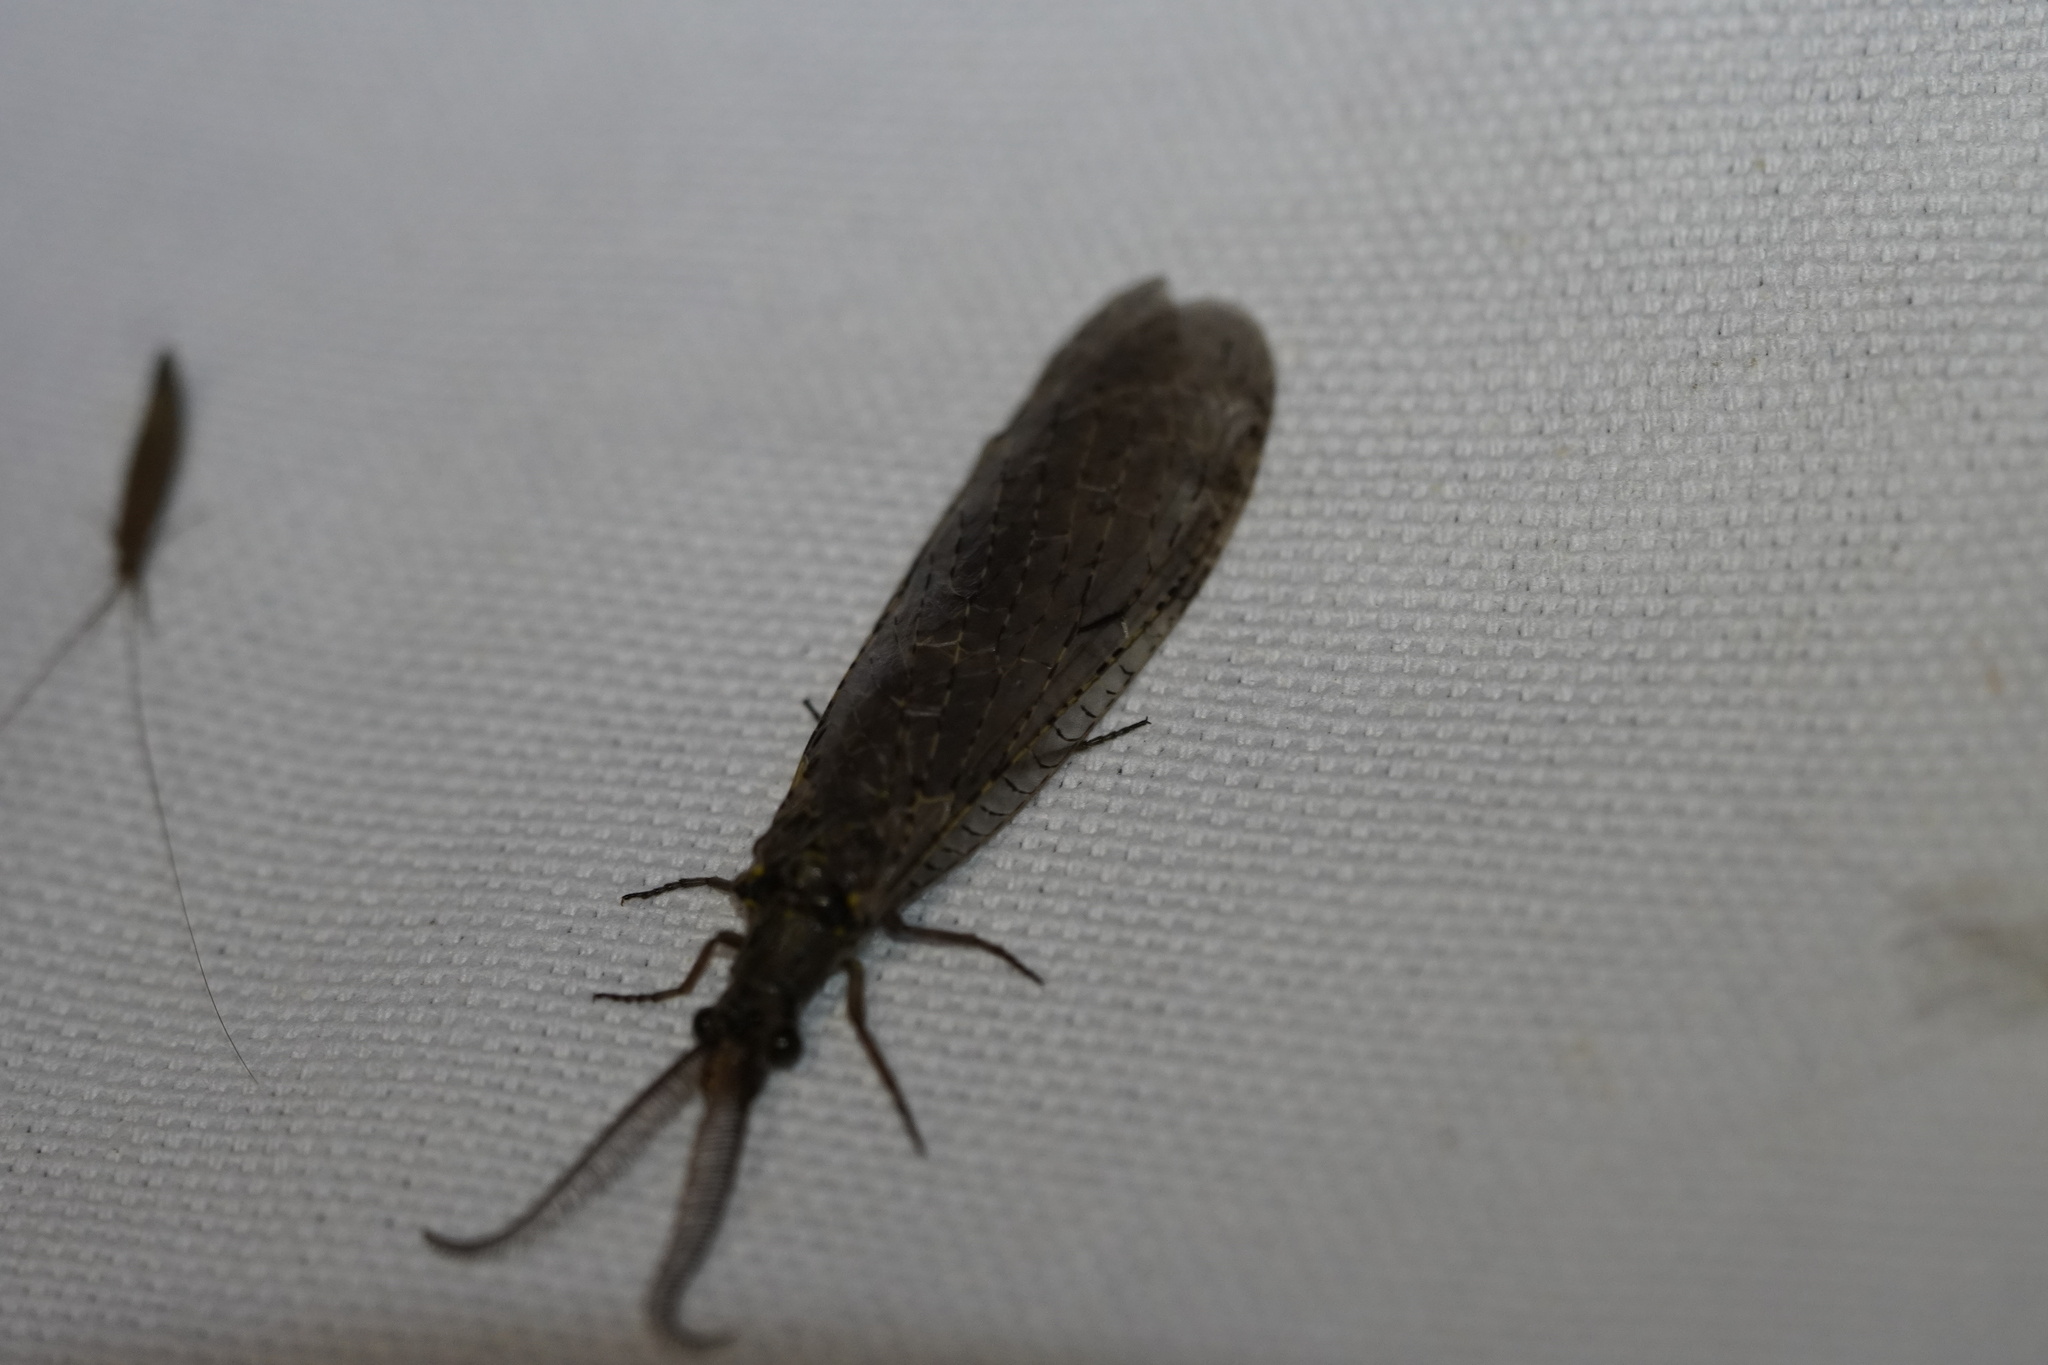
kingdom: Animalia
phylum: Arthropoda
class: Insecta
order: Megaloptera
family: Corydalidae
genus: Chauliodes
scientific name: Chauliodes rastricornis
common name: Spring fishfly
